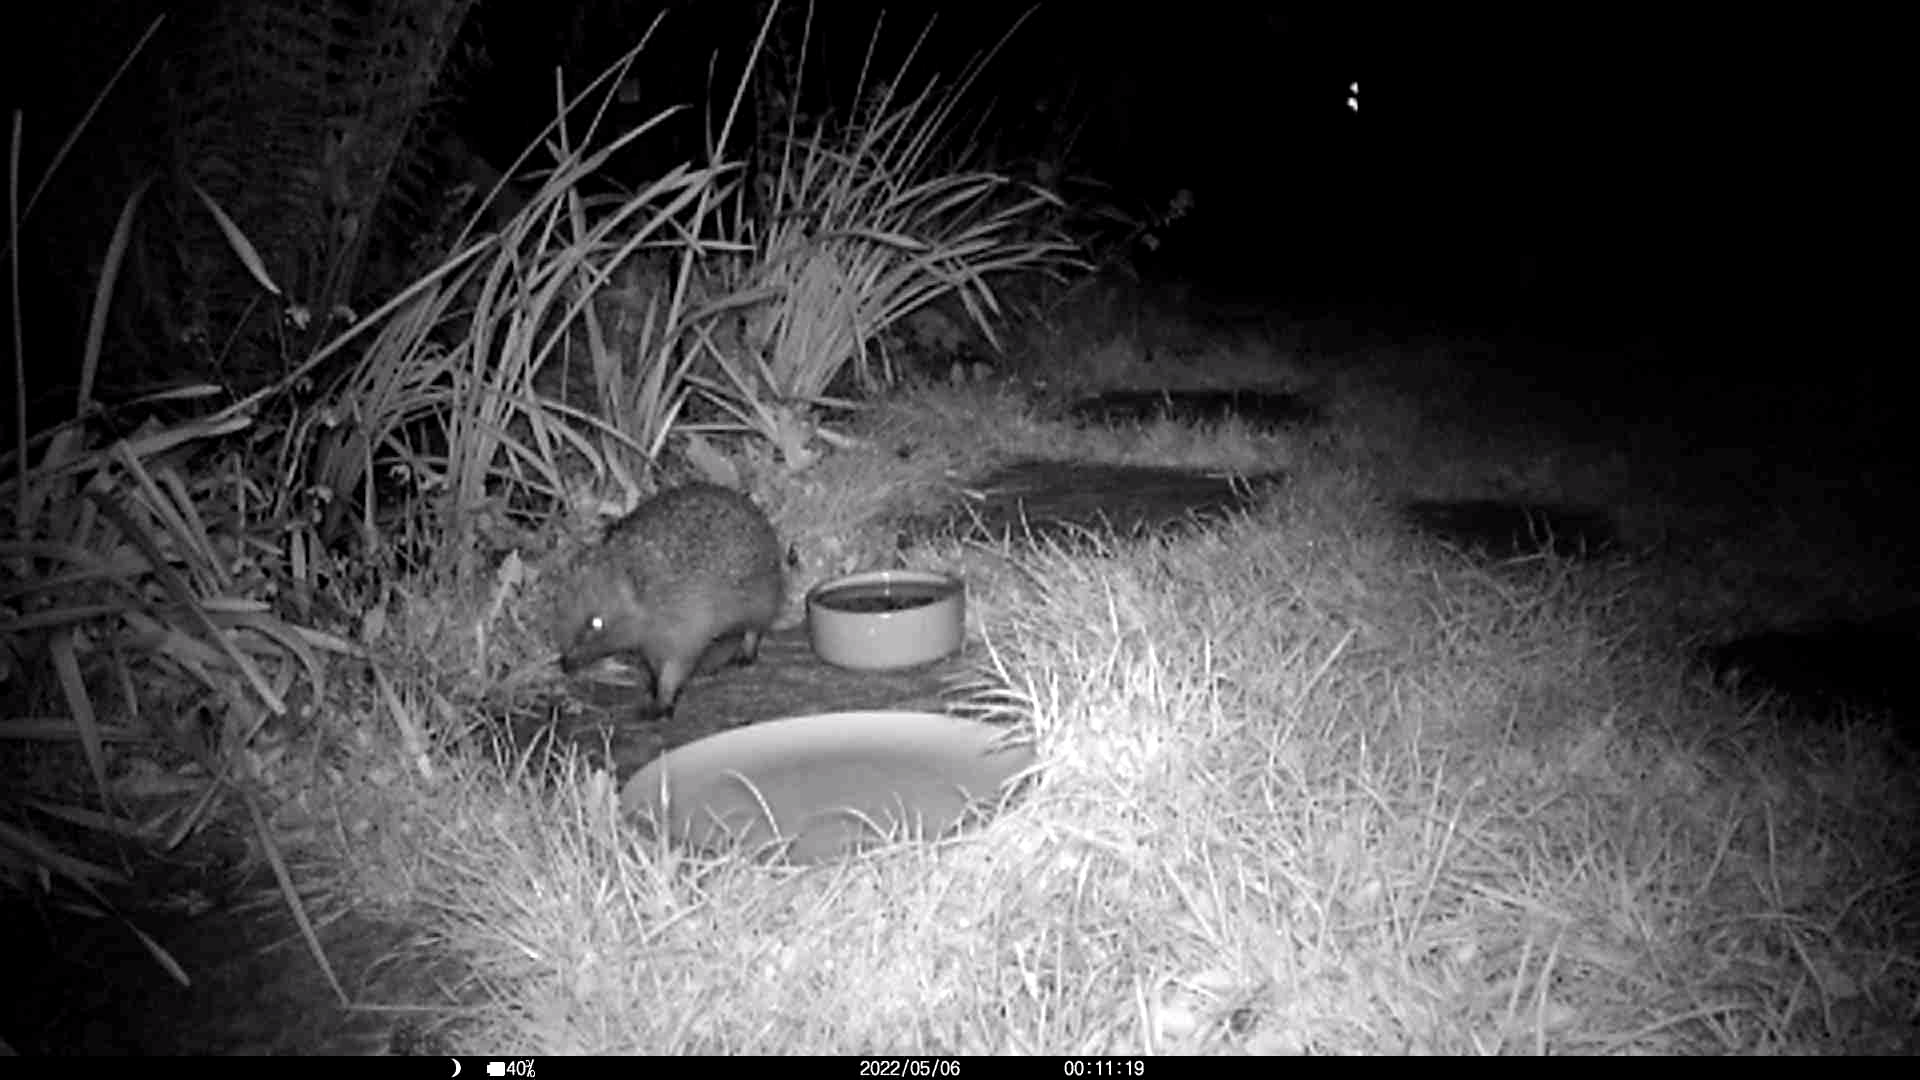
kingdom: Animalia
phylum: Chordata
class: Mammalia
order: Erinaceomorpha
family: Erinaceidae
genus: Erinaceus
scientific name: Erinaceus europaeus
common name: West european hedgehog
